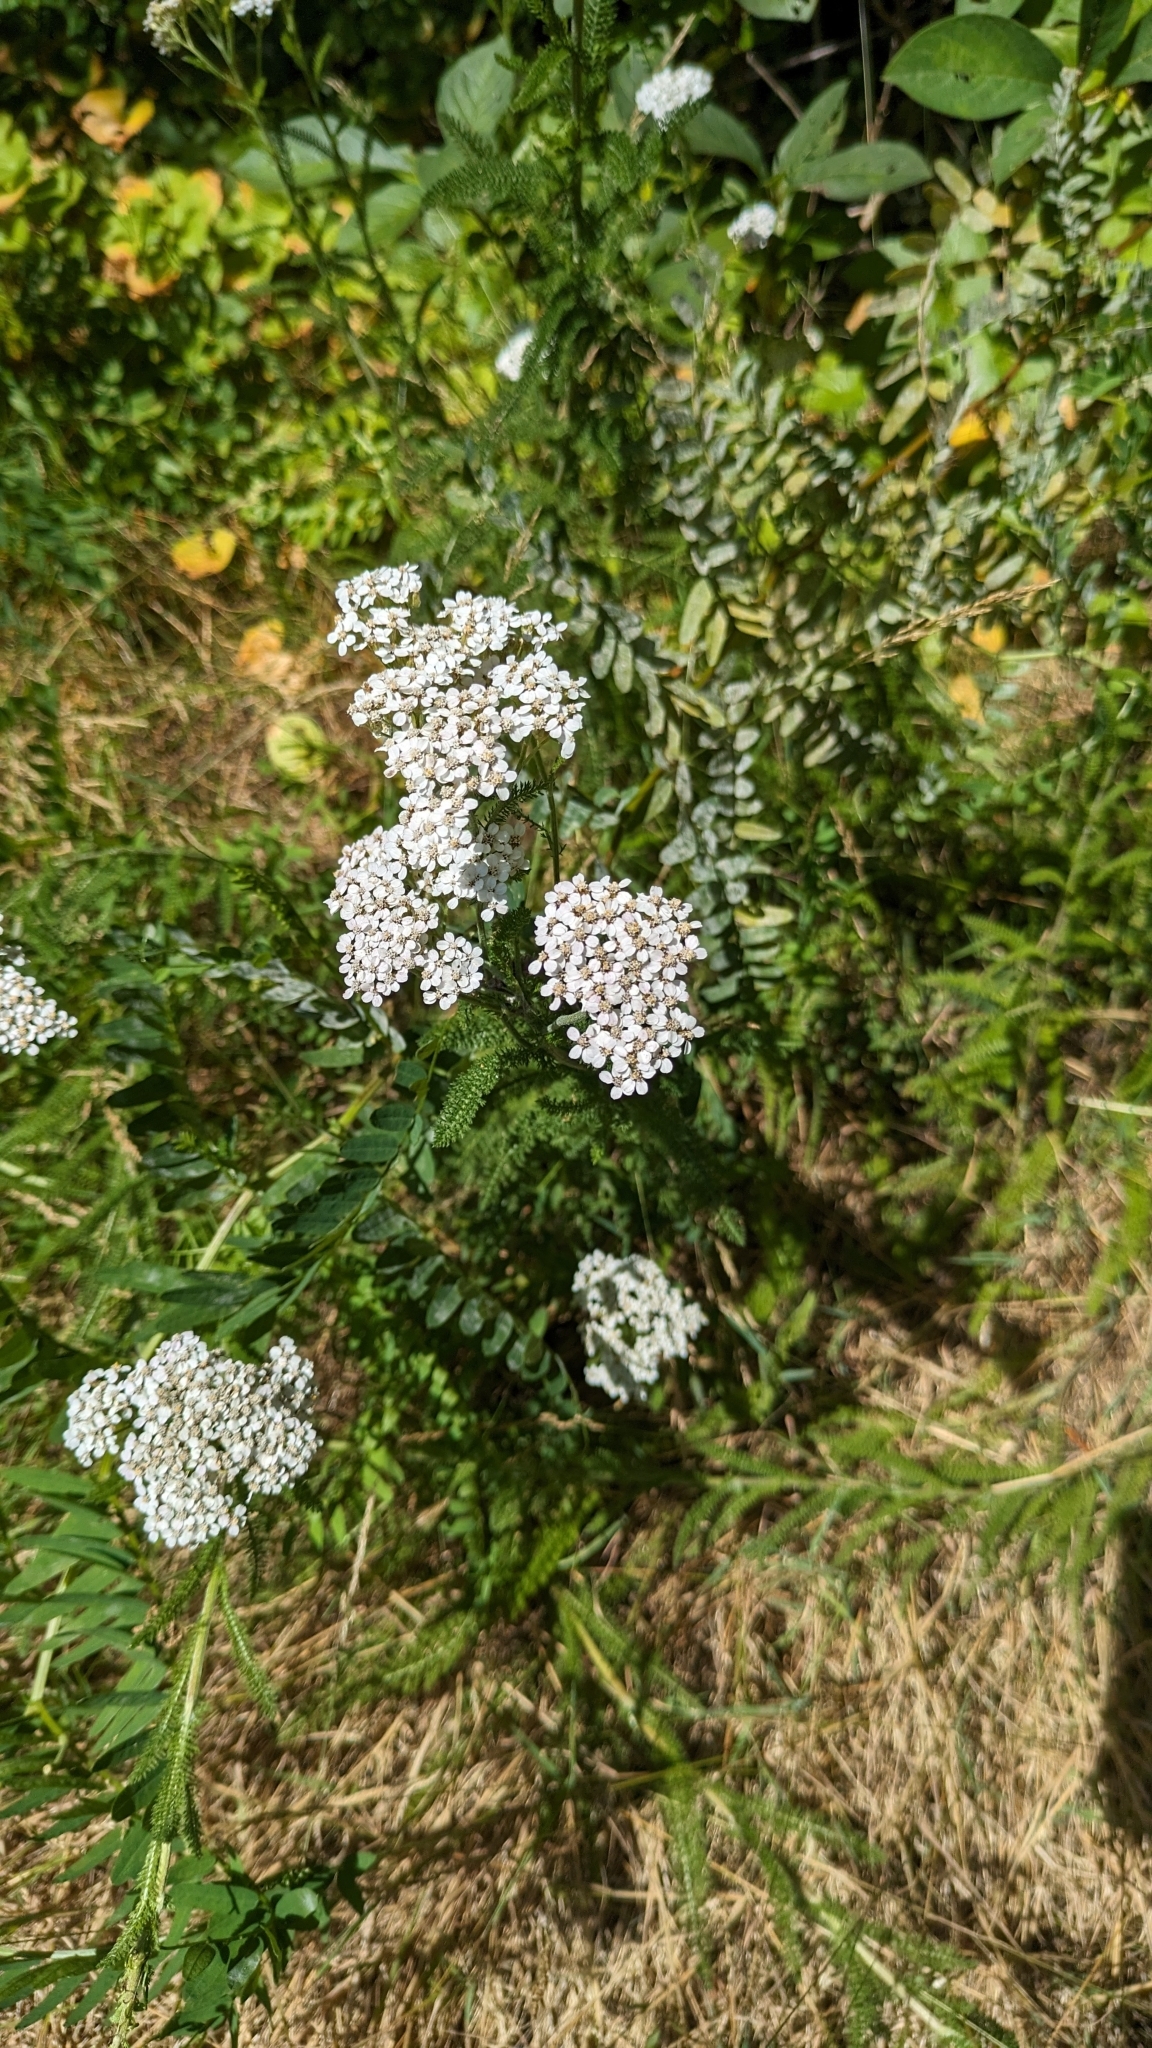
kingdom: Plantae
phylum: Tracheophyta
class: Magnoliopsida
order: Asterales
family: Asteraceae
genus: Achillea
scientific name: Achillea millefolium
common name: Yarrow
